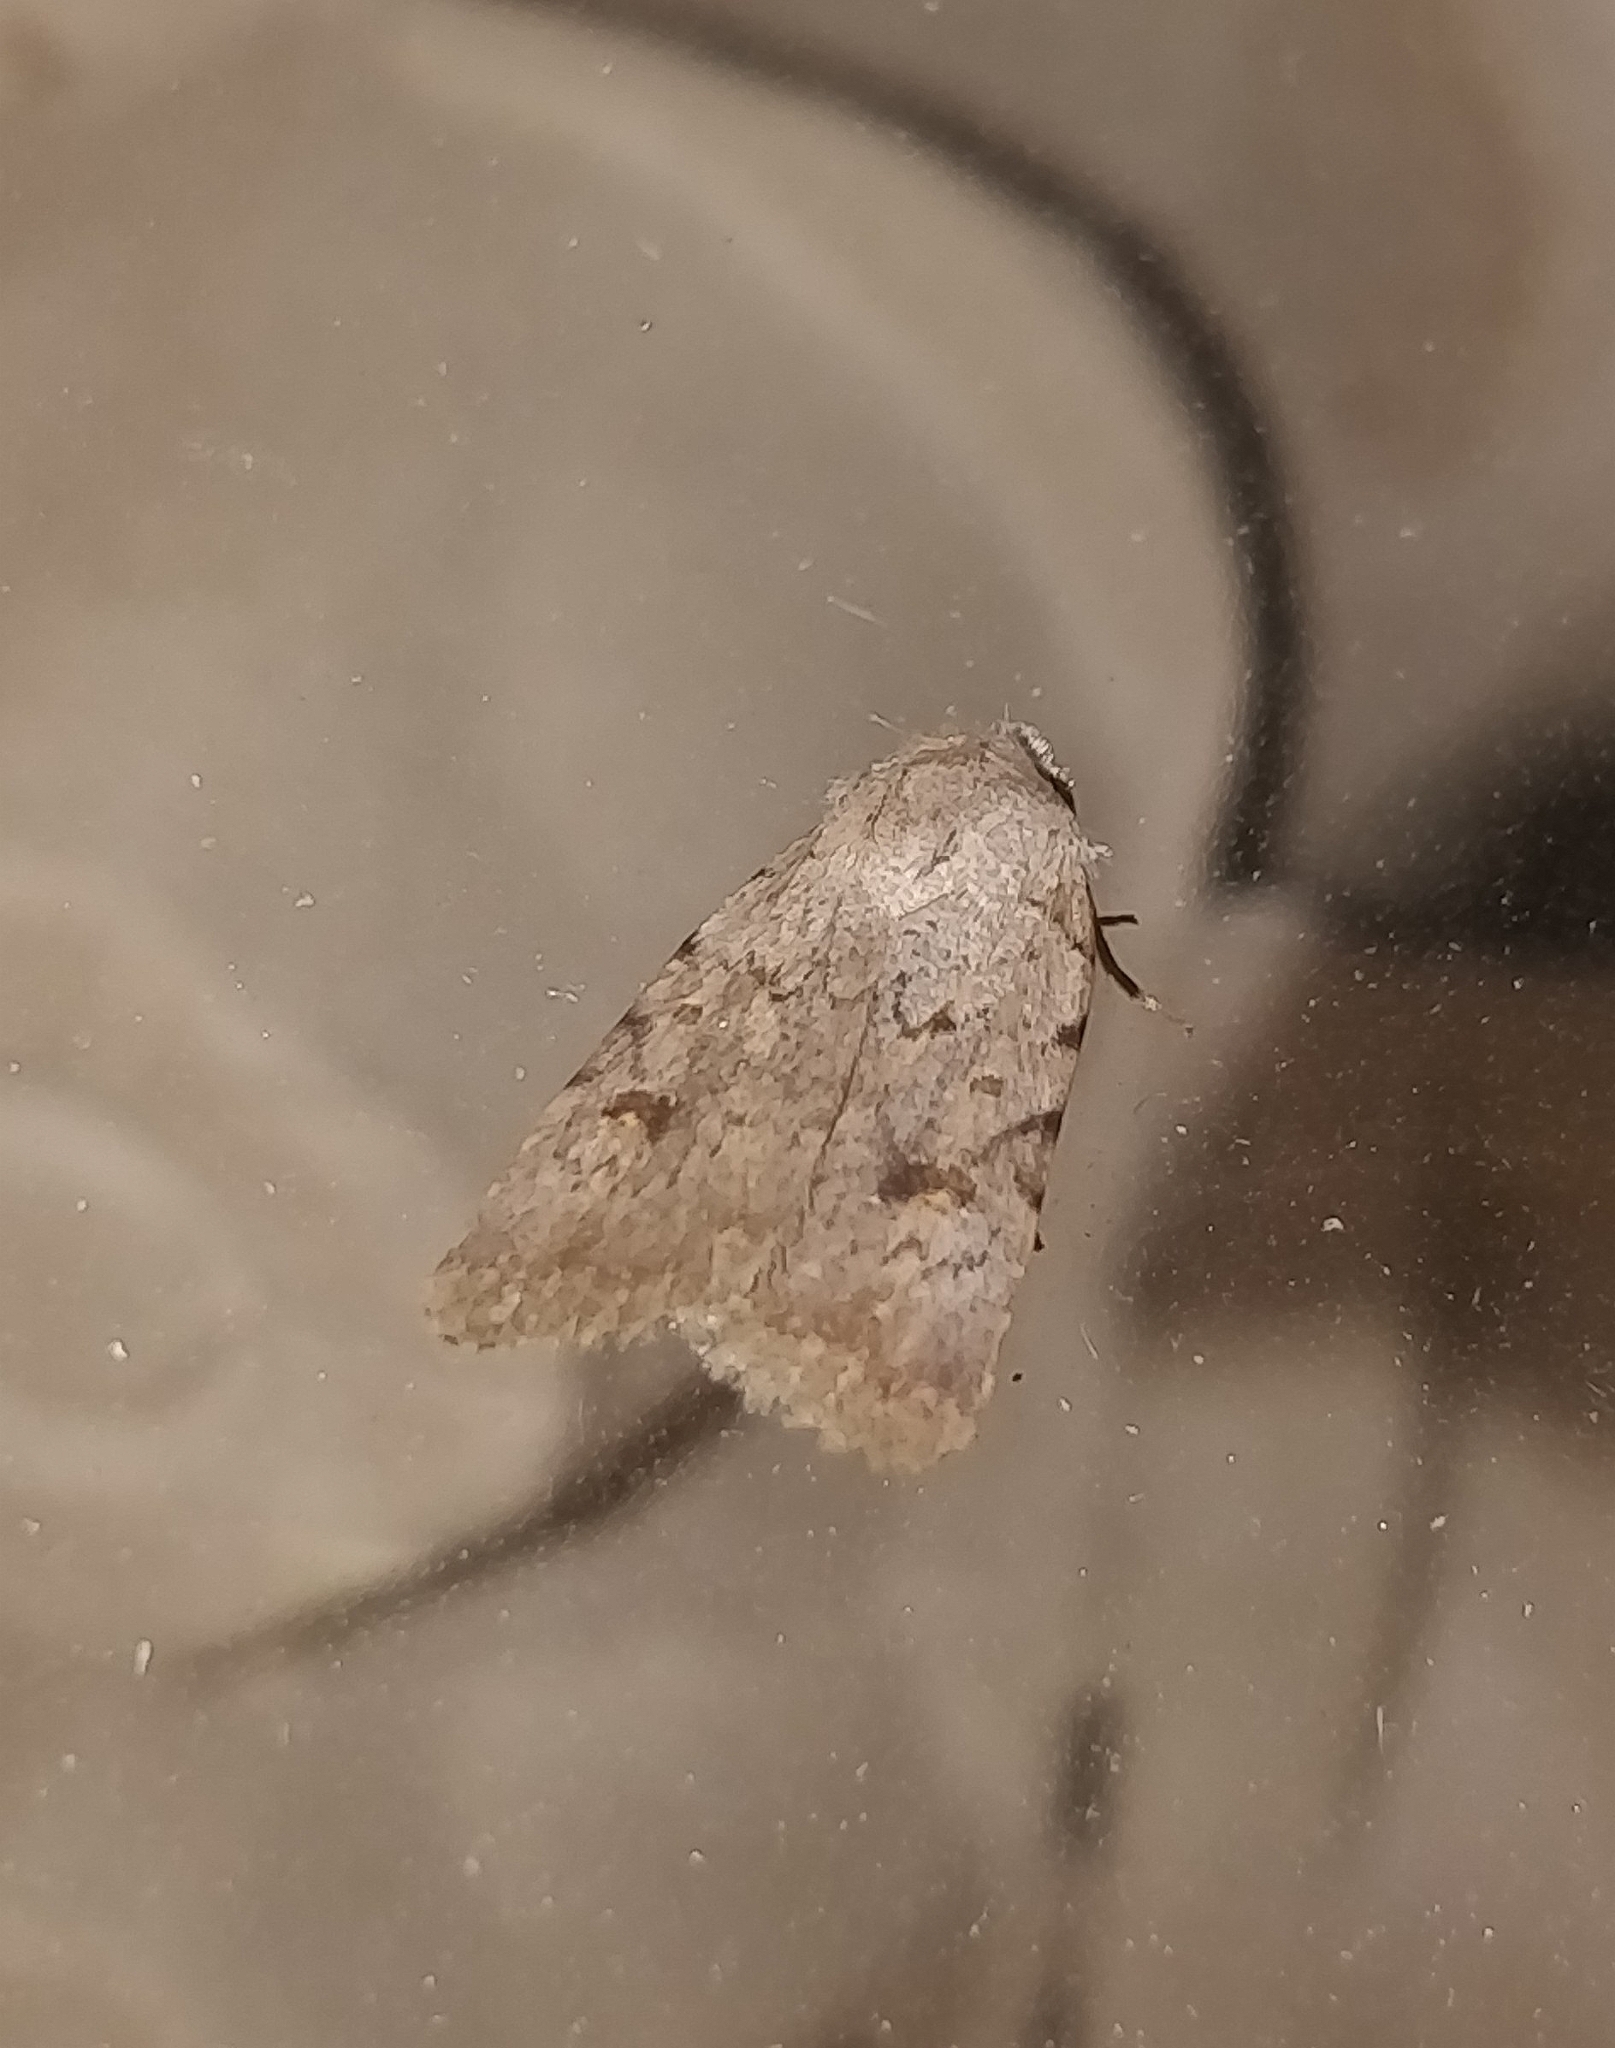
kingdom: Animalia
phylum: Arthropoda
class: Insecta
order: Lepidoptera
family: Noctuidae
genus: Caradrina
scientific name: Caradrina clavipalpis
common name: Pale mottled willow
